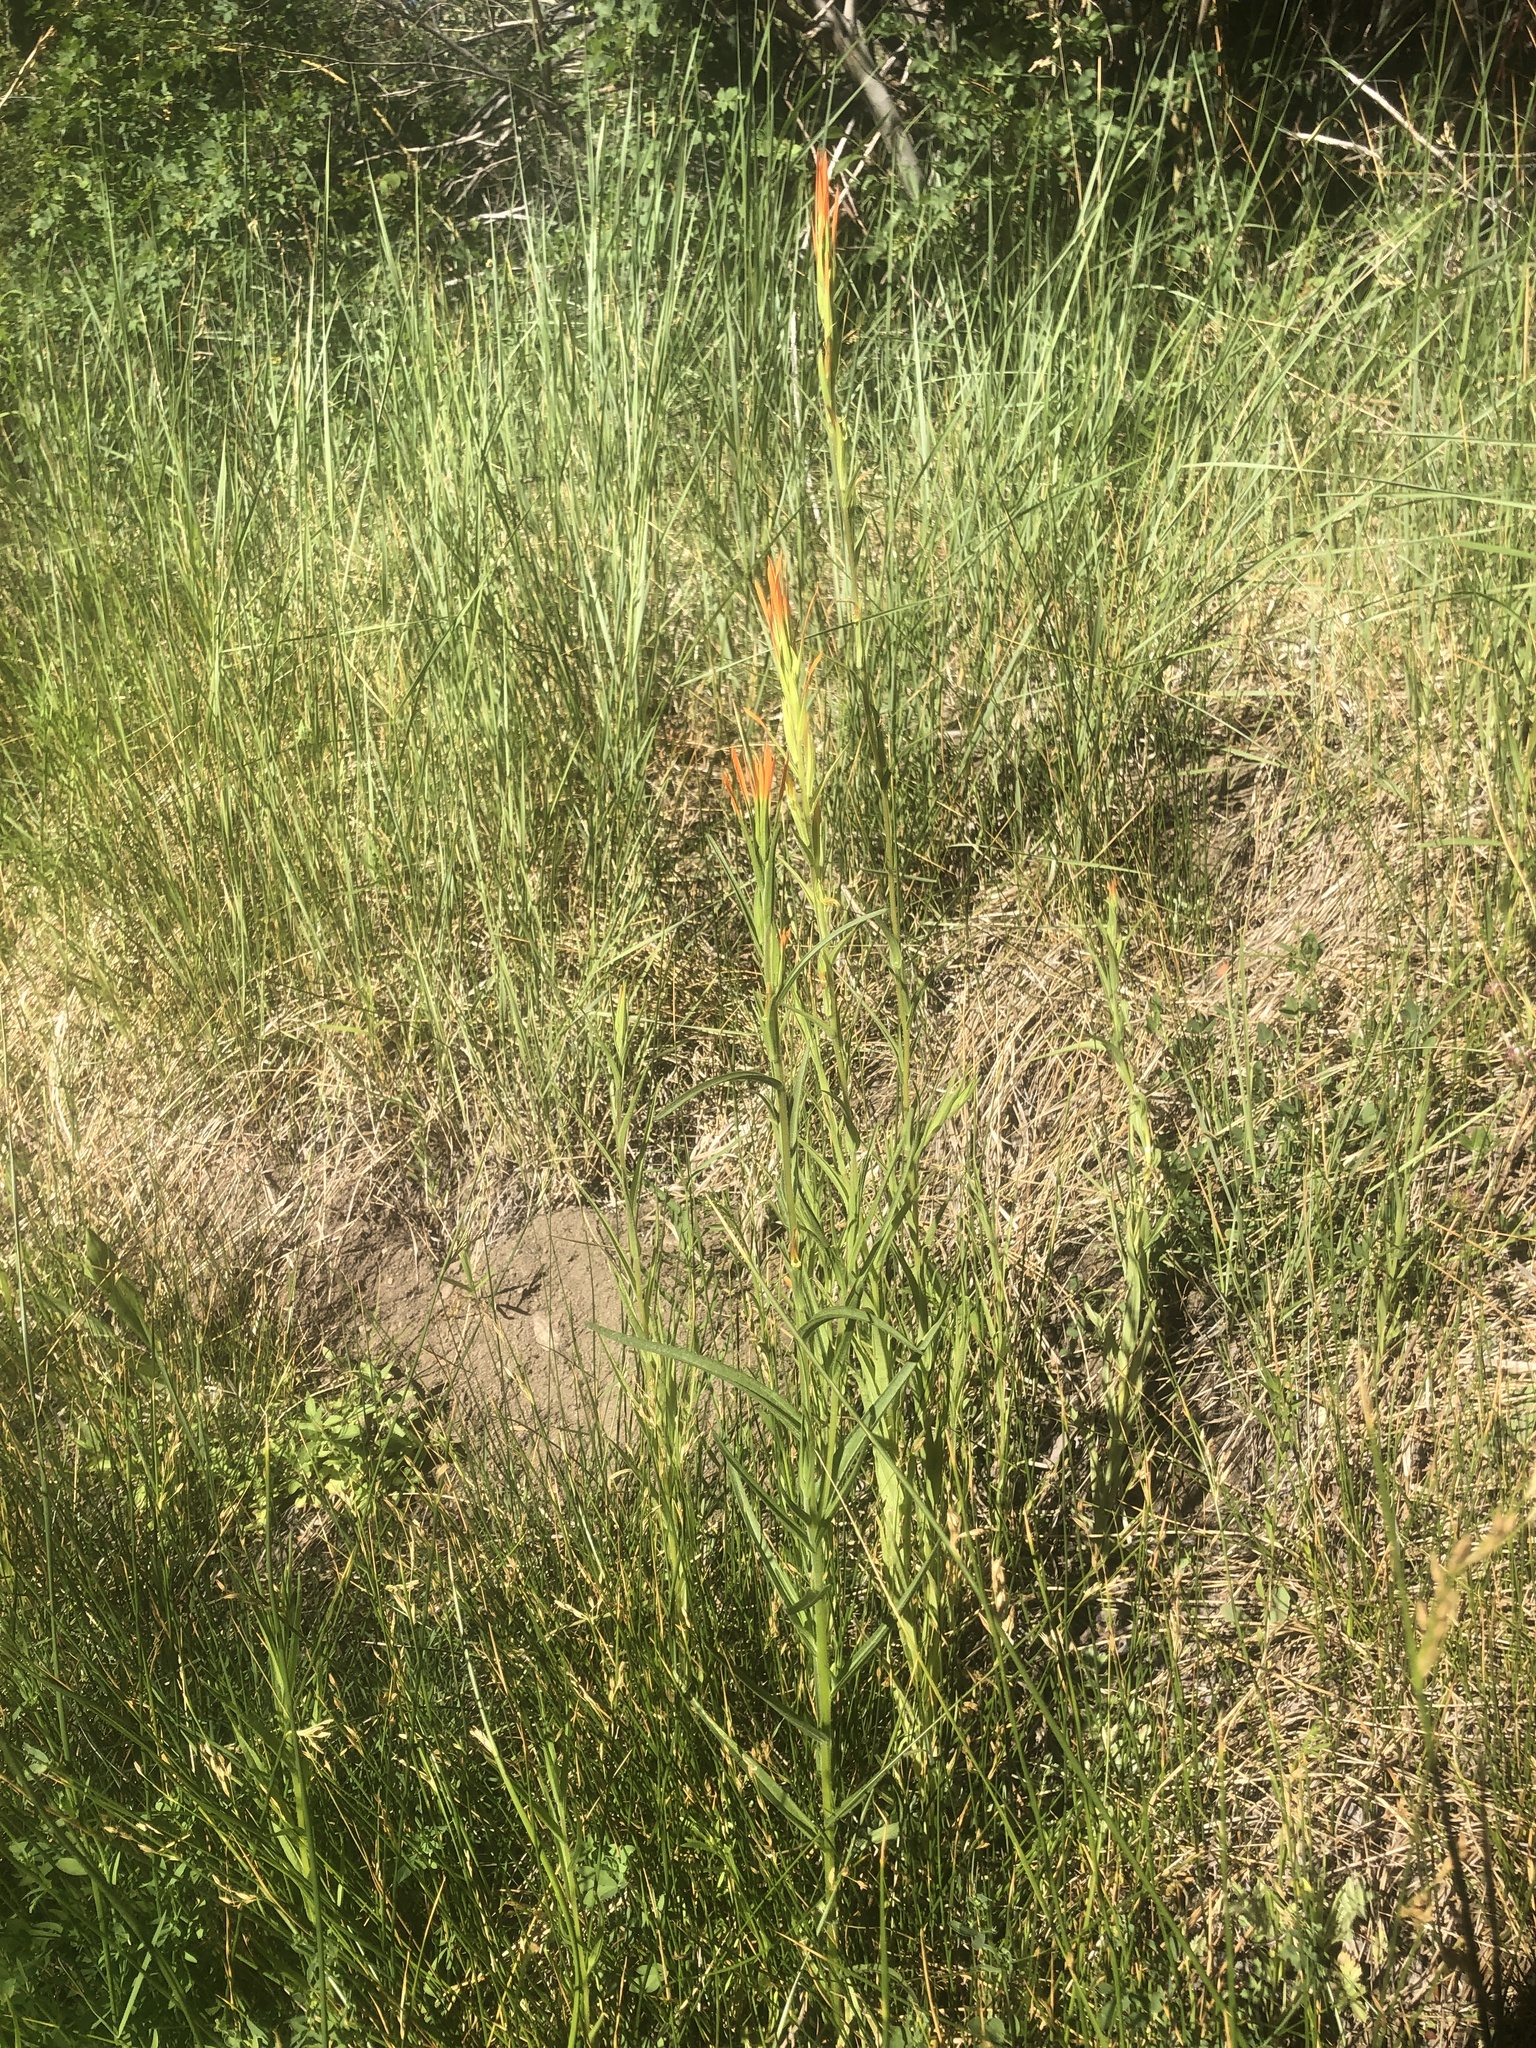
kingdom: Plantae
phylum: Tracheophyta
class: Magnoliopsida
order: Lamiales
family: Orobanchaceae
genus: Castilleja
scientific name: Castilleja minor
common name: Seep paintbrush
